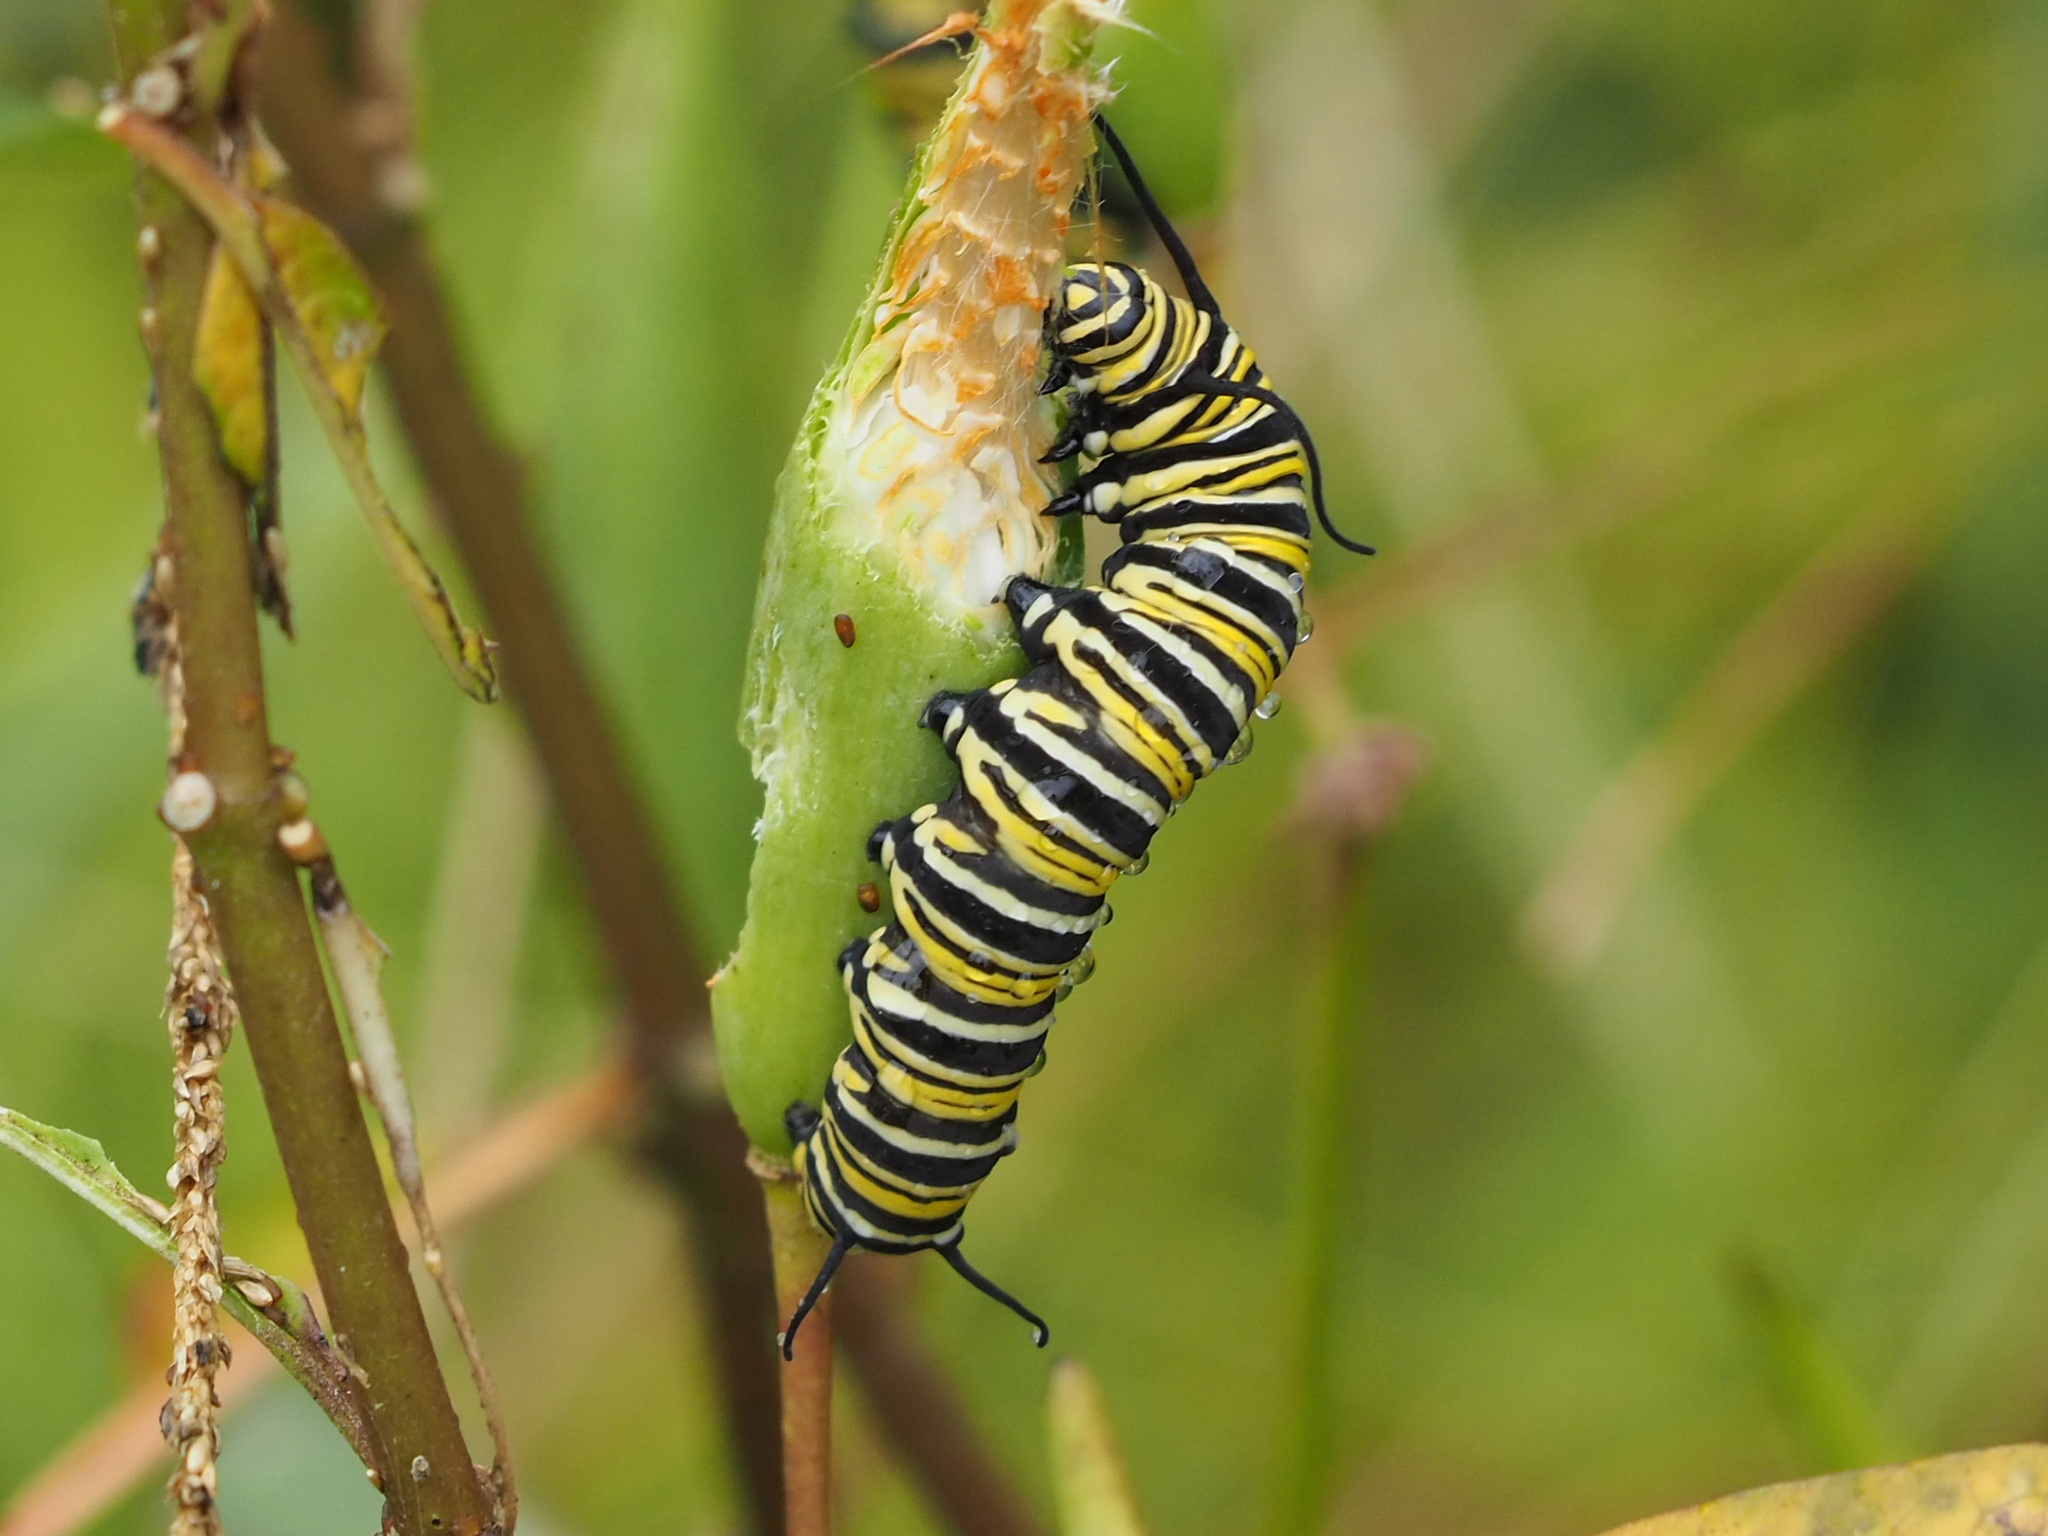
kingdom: Animalia
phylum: Arthropoda
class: Insecta
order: Lepidoptera
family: Nymphalidae
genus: Danaus
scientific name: Danaus plexippus
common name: Monarch
